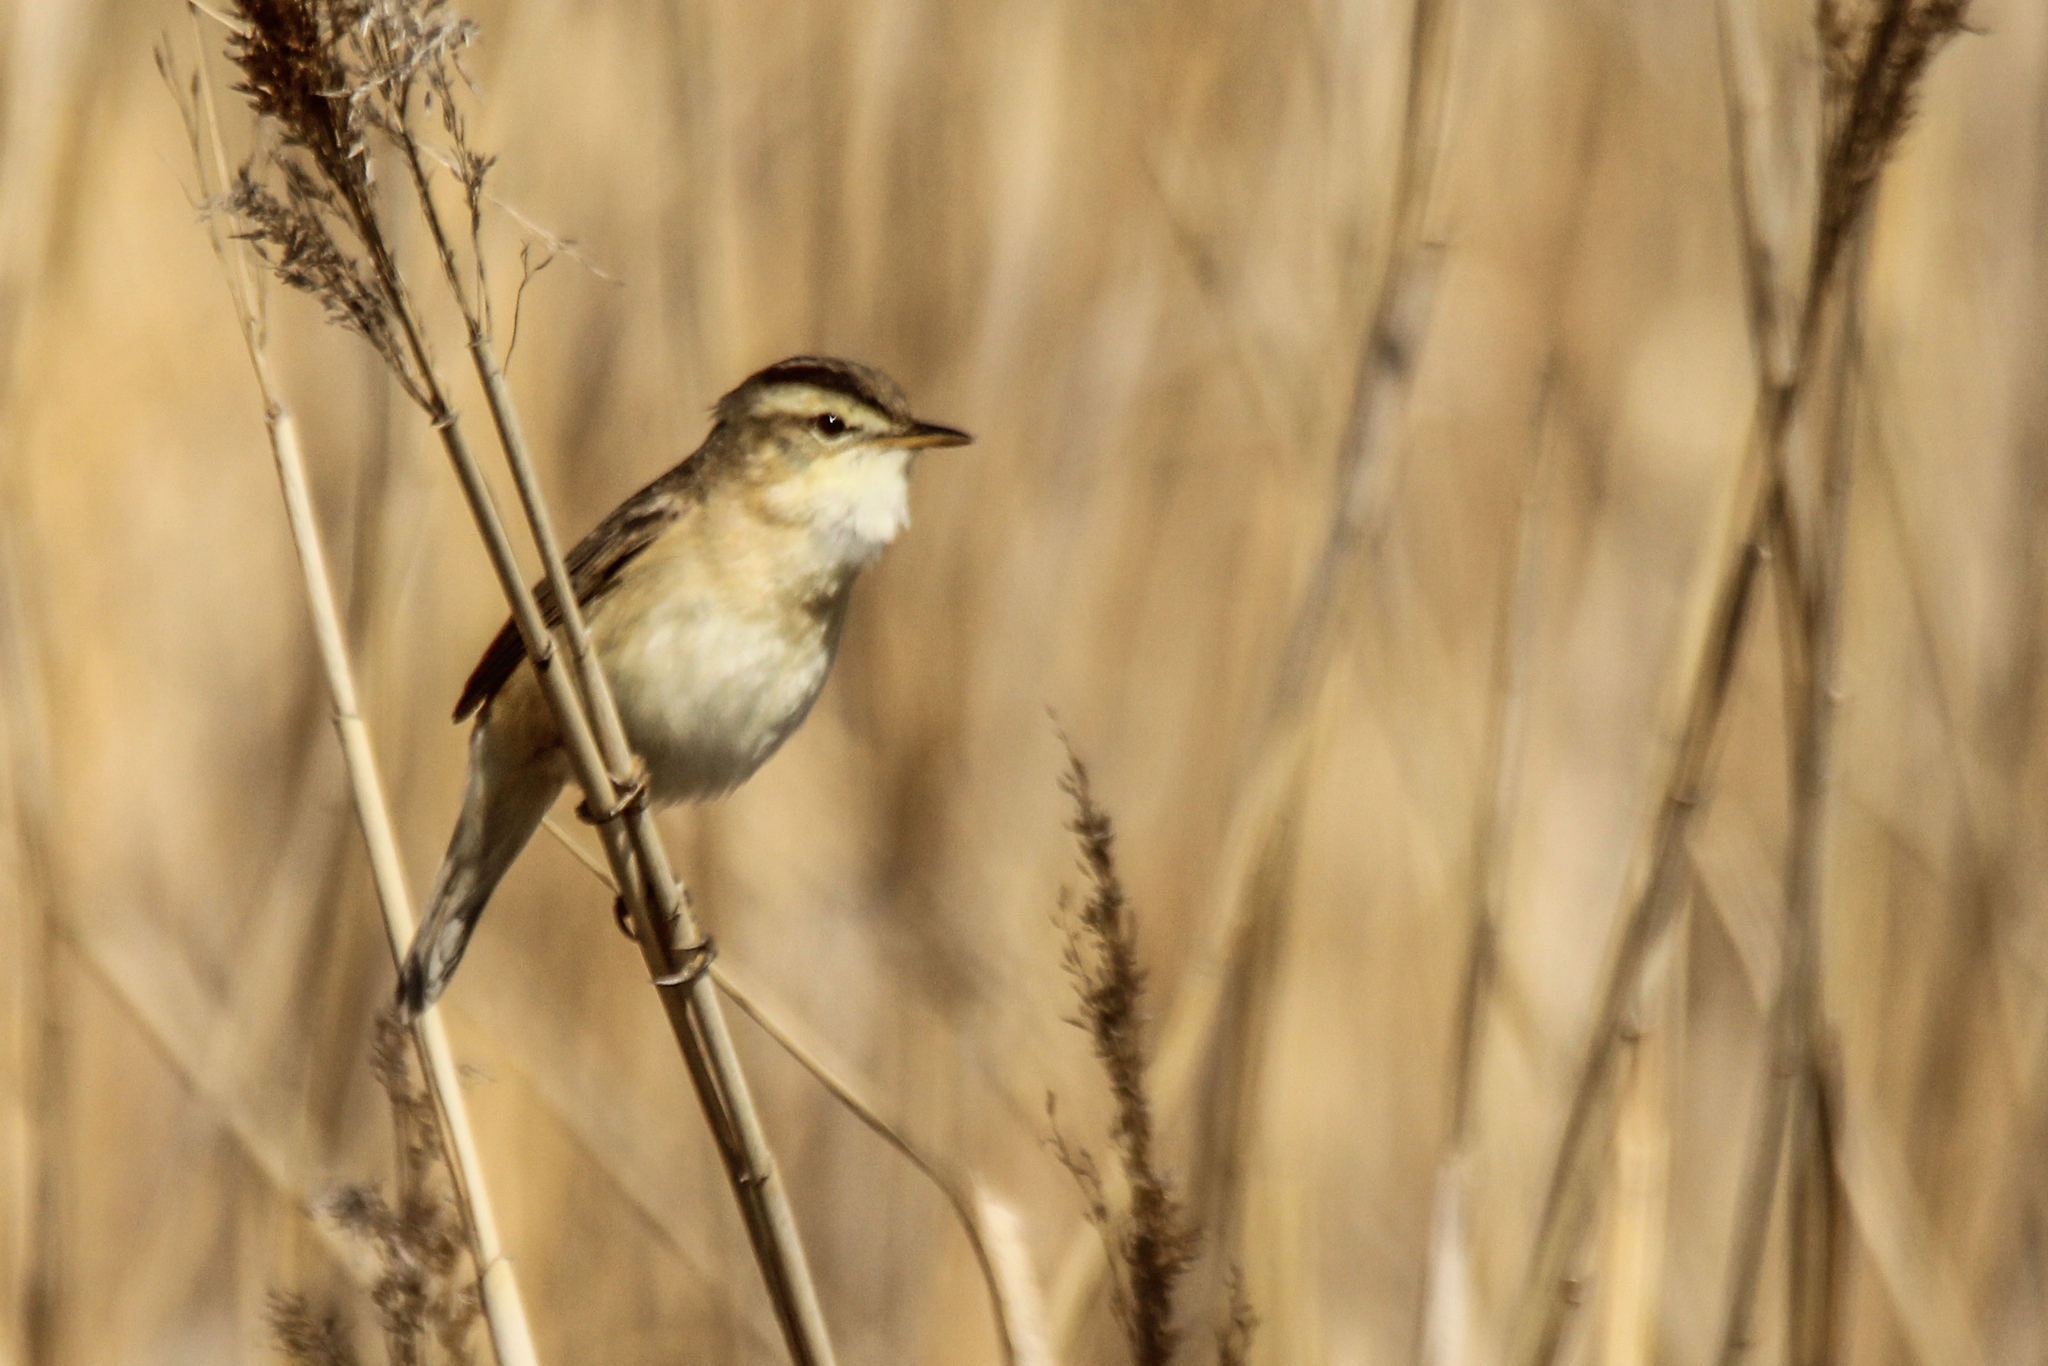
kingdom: Animalia
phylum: Chordata
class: Aves
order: Passeriformes
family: Acrocephalidae
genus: Acrocephalus
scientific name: Acrocephalus bistrigiceps
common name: Black-browed reed warbler
